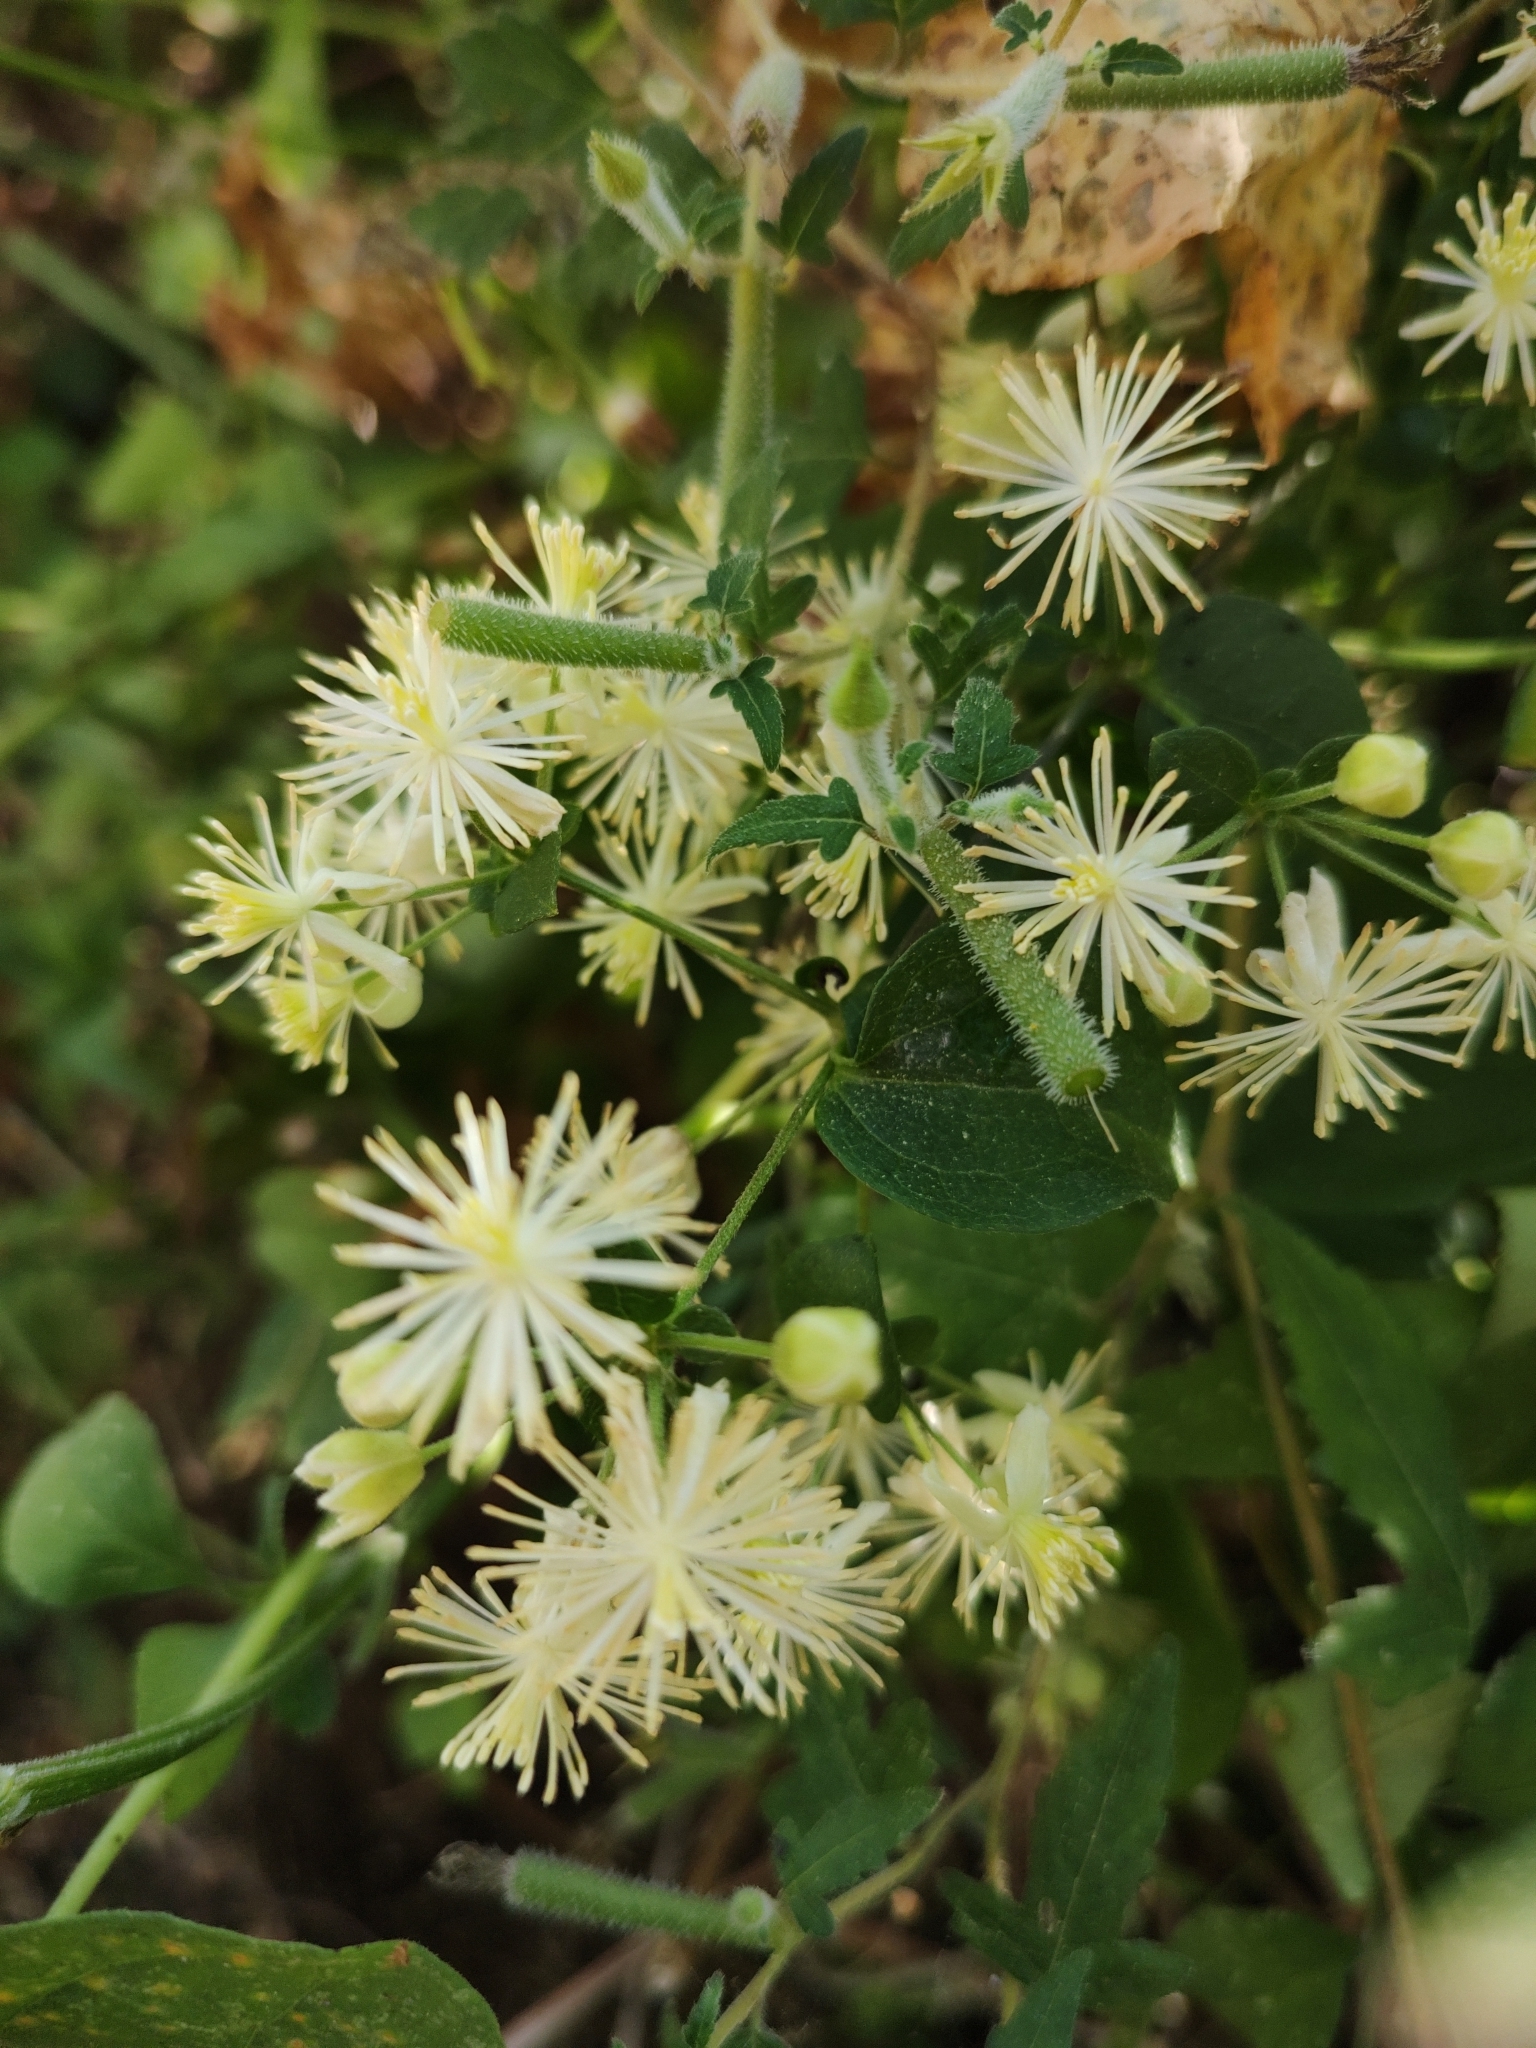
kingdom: Plantae
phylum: Tracheophyta
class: Magnoliopsida
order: Ranunculales
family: Ranunculaceae
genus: Clematis
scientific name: Clematis dioica
